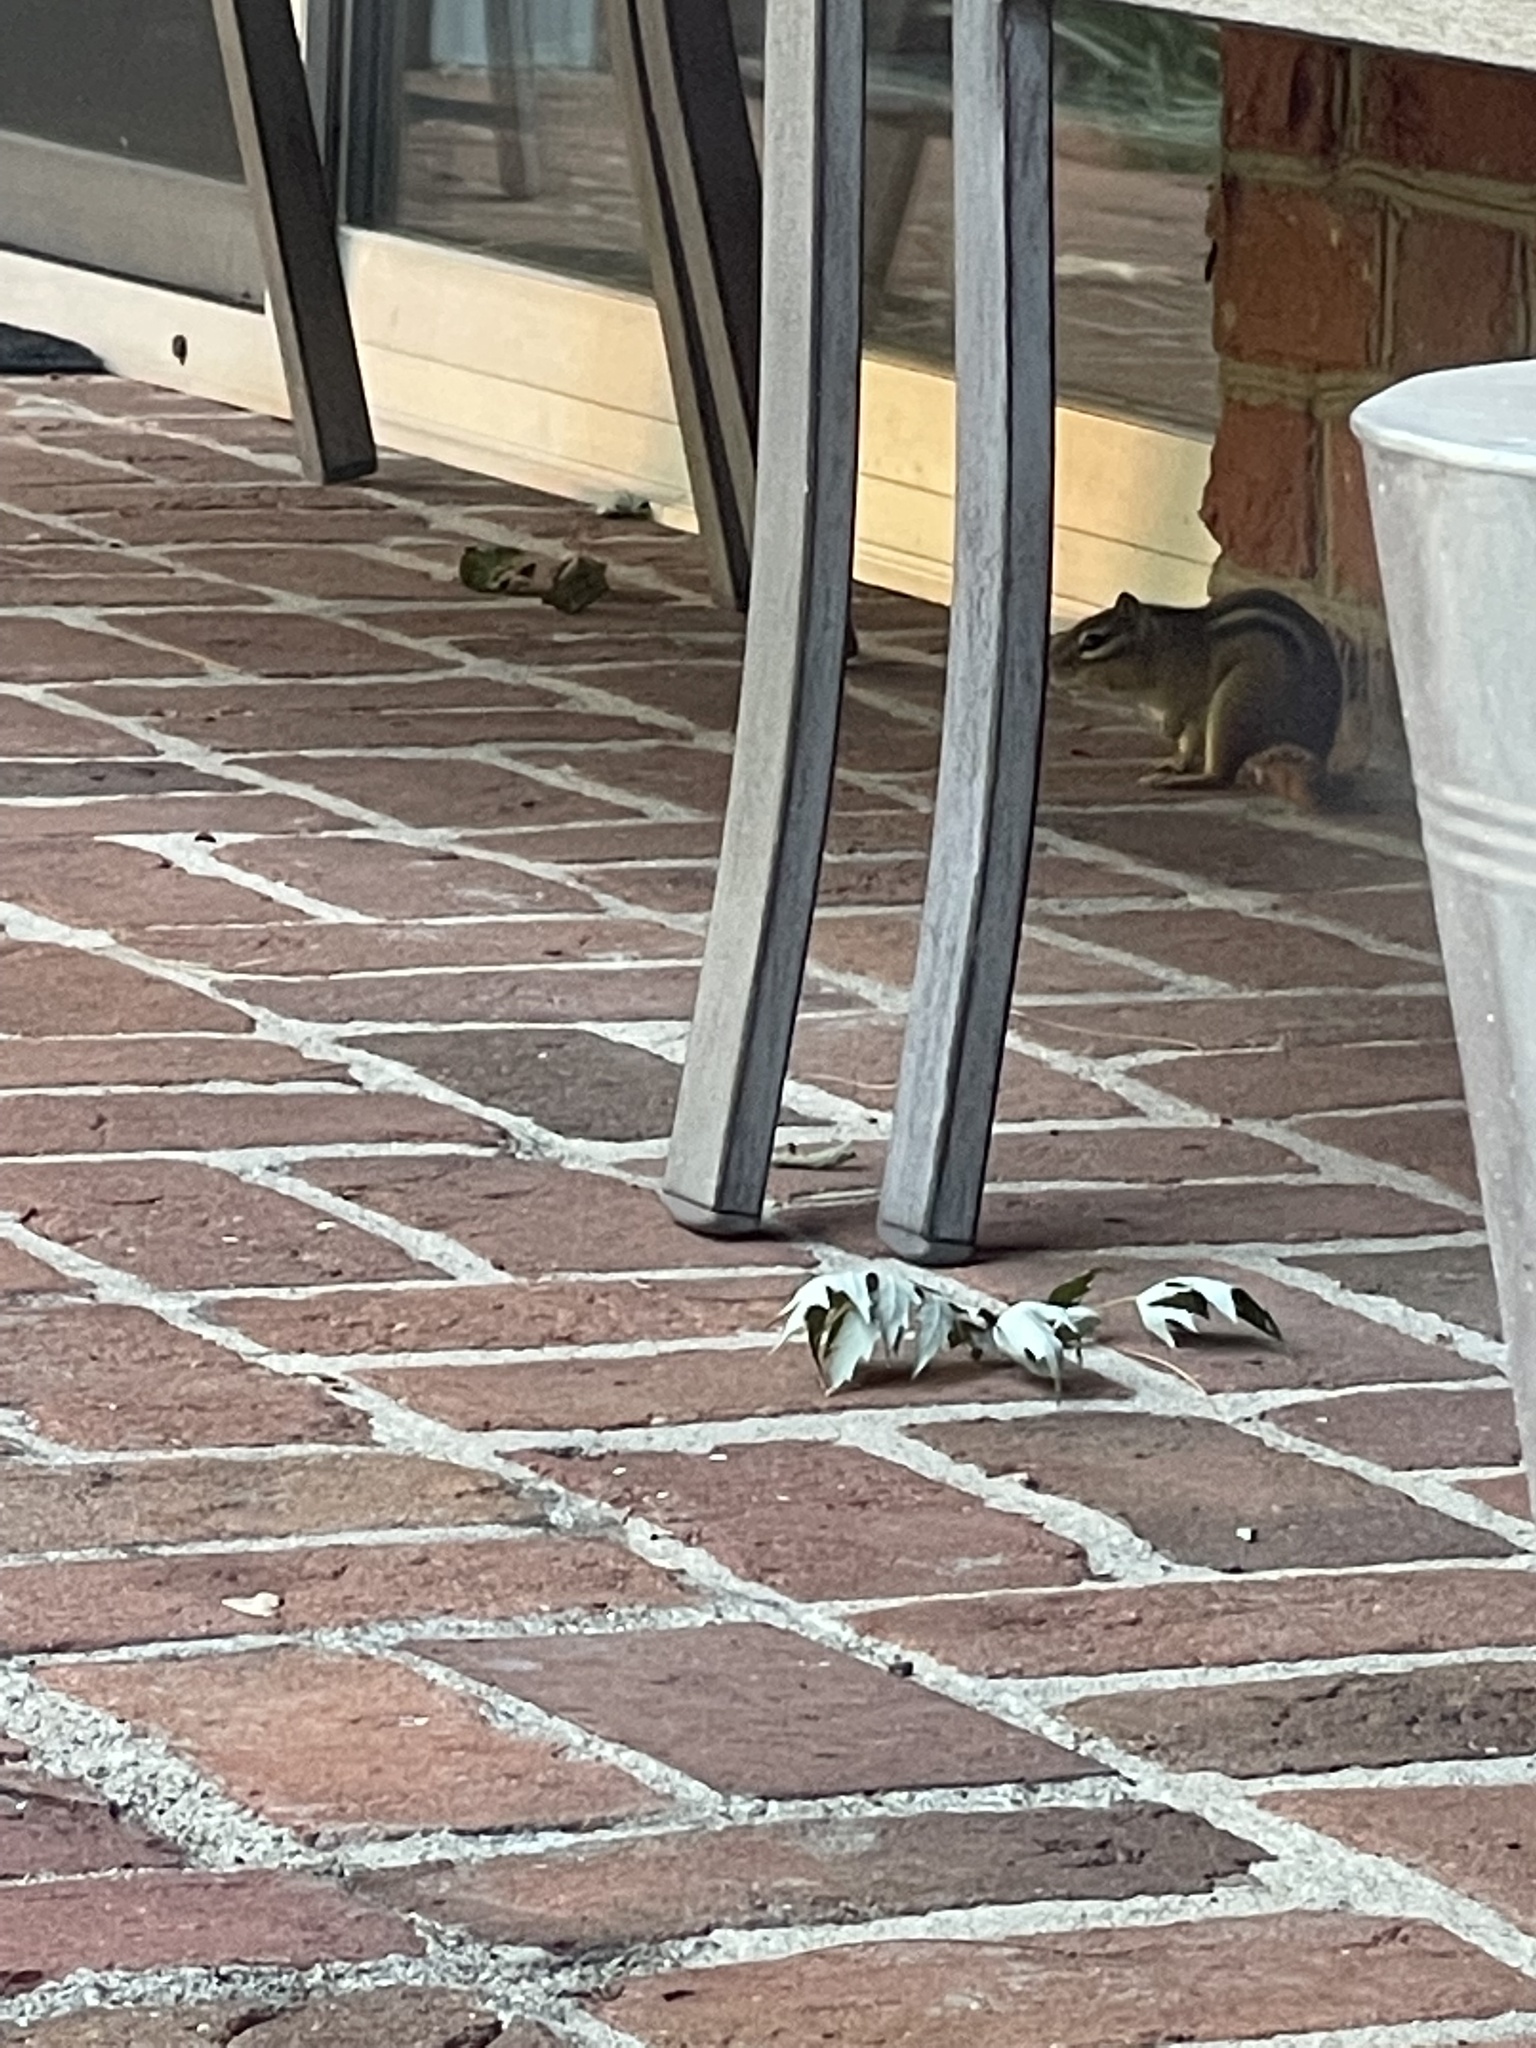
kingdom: Animalia
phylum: Chordata
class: Mammalia
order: Rodentia
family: Sciuridae
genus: Tamias
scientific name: Tamias striatus
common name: Eastern chipmunk
